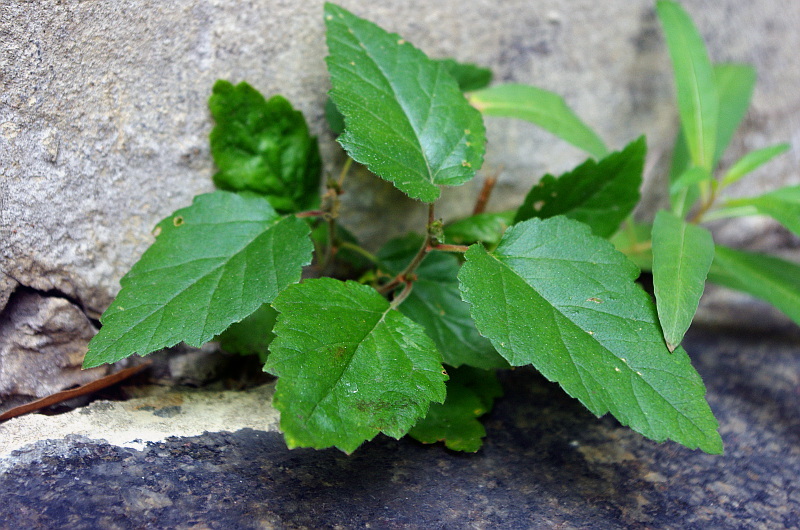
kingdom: Plantae
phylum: Tracheophyta
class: Magnoliopsida
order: Fagales
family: Betulaceae
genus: Betula
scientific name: Betula pubescens
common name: Downy birch
